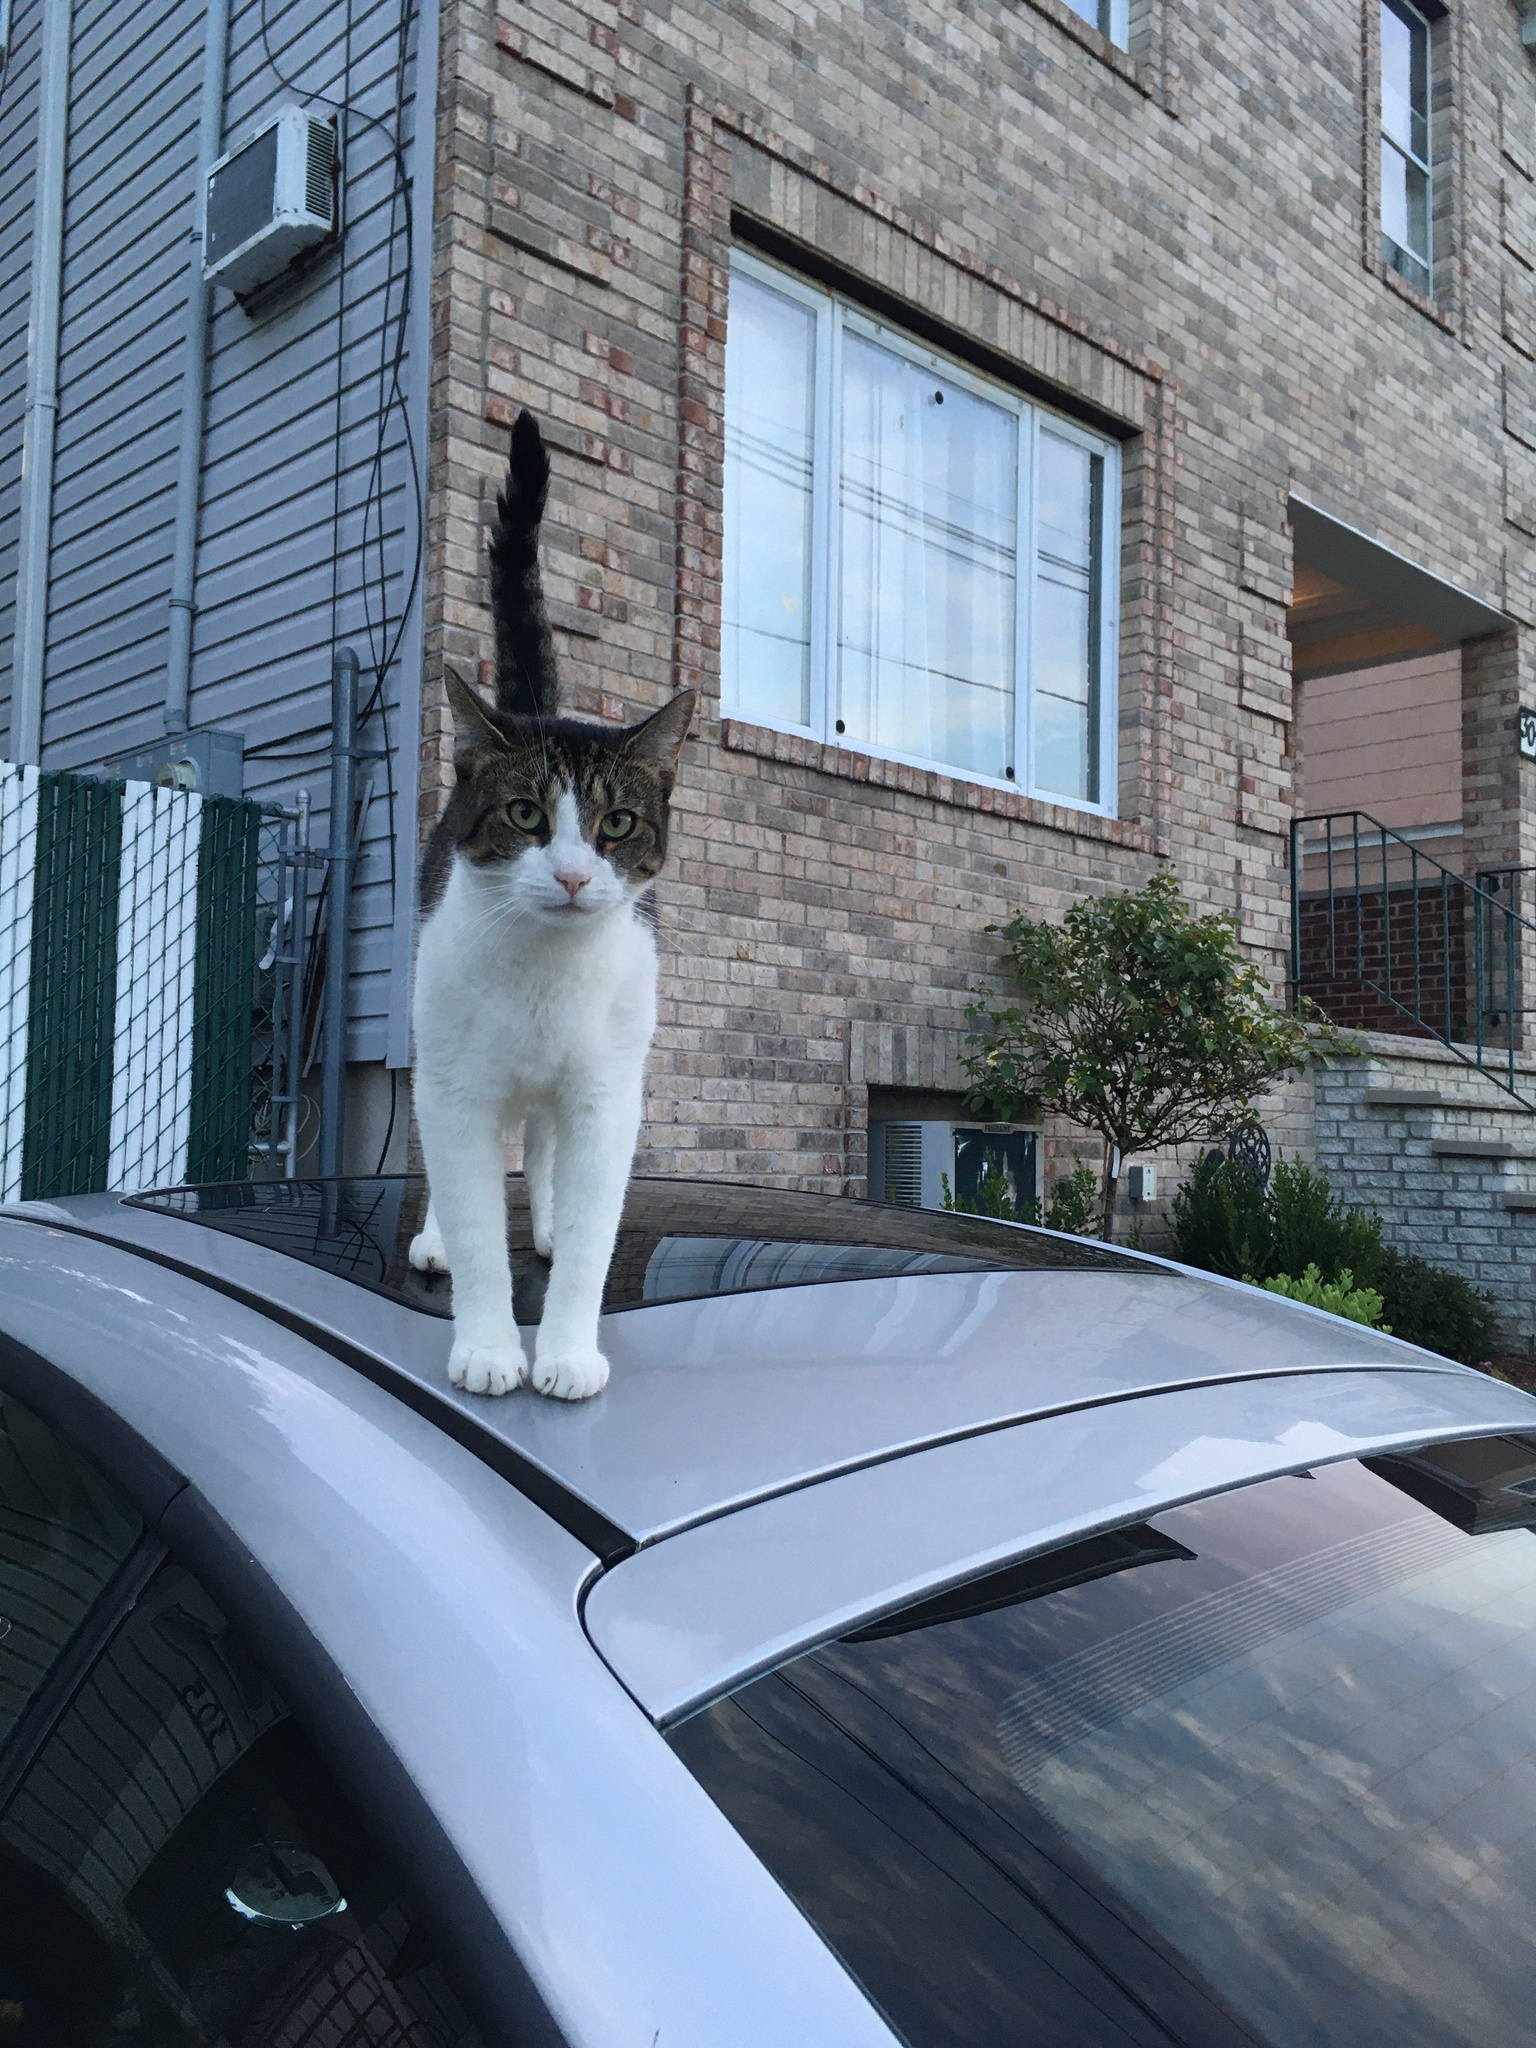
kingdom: Animalia
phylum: Chordata
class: Mammalia
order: Carnivora
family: Felidae
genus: Felis
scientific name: Felis catus
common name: Domestic cat
